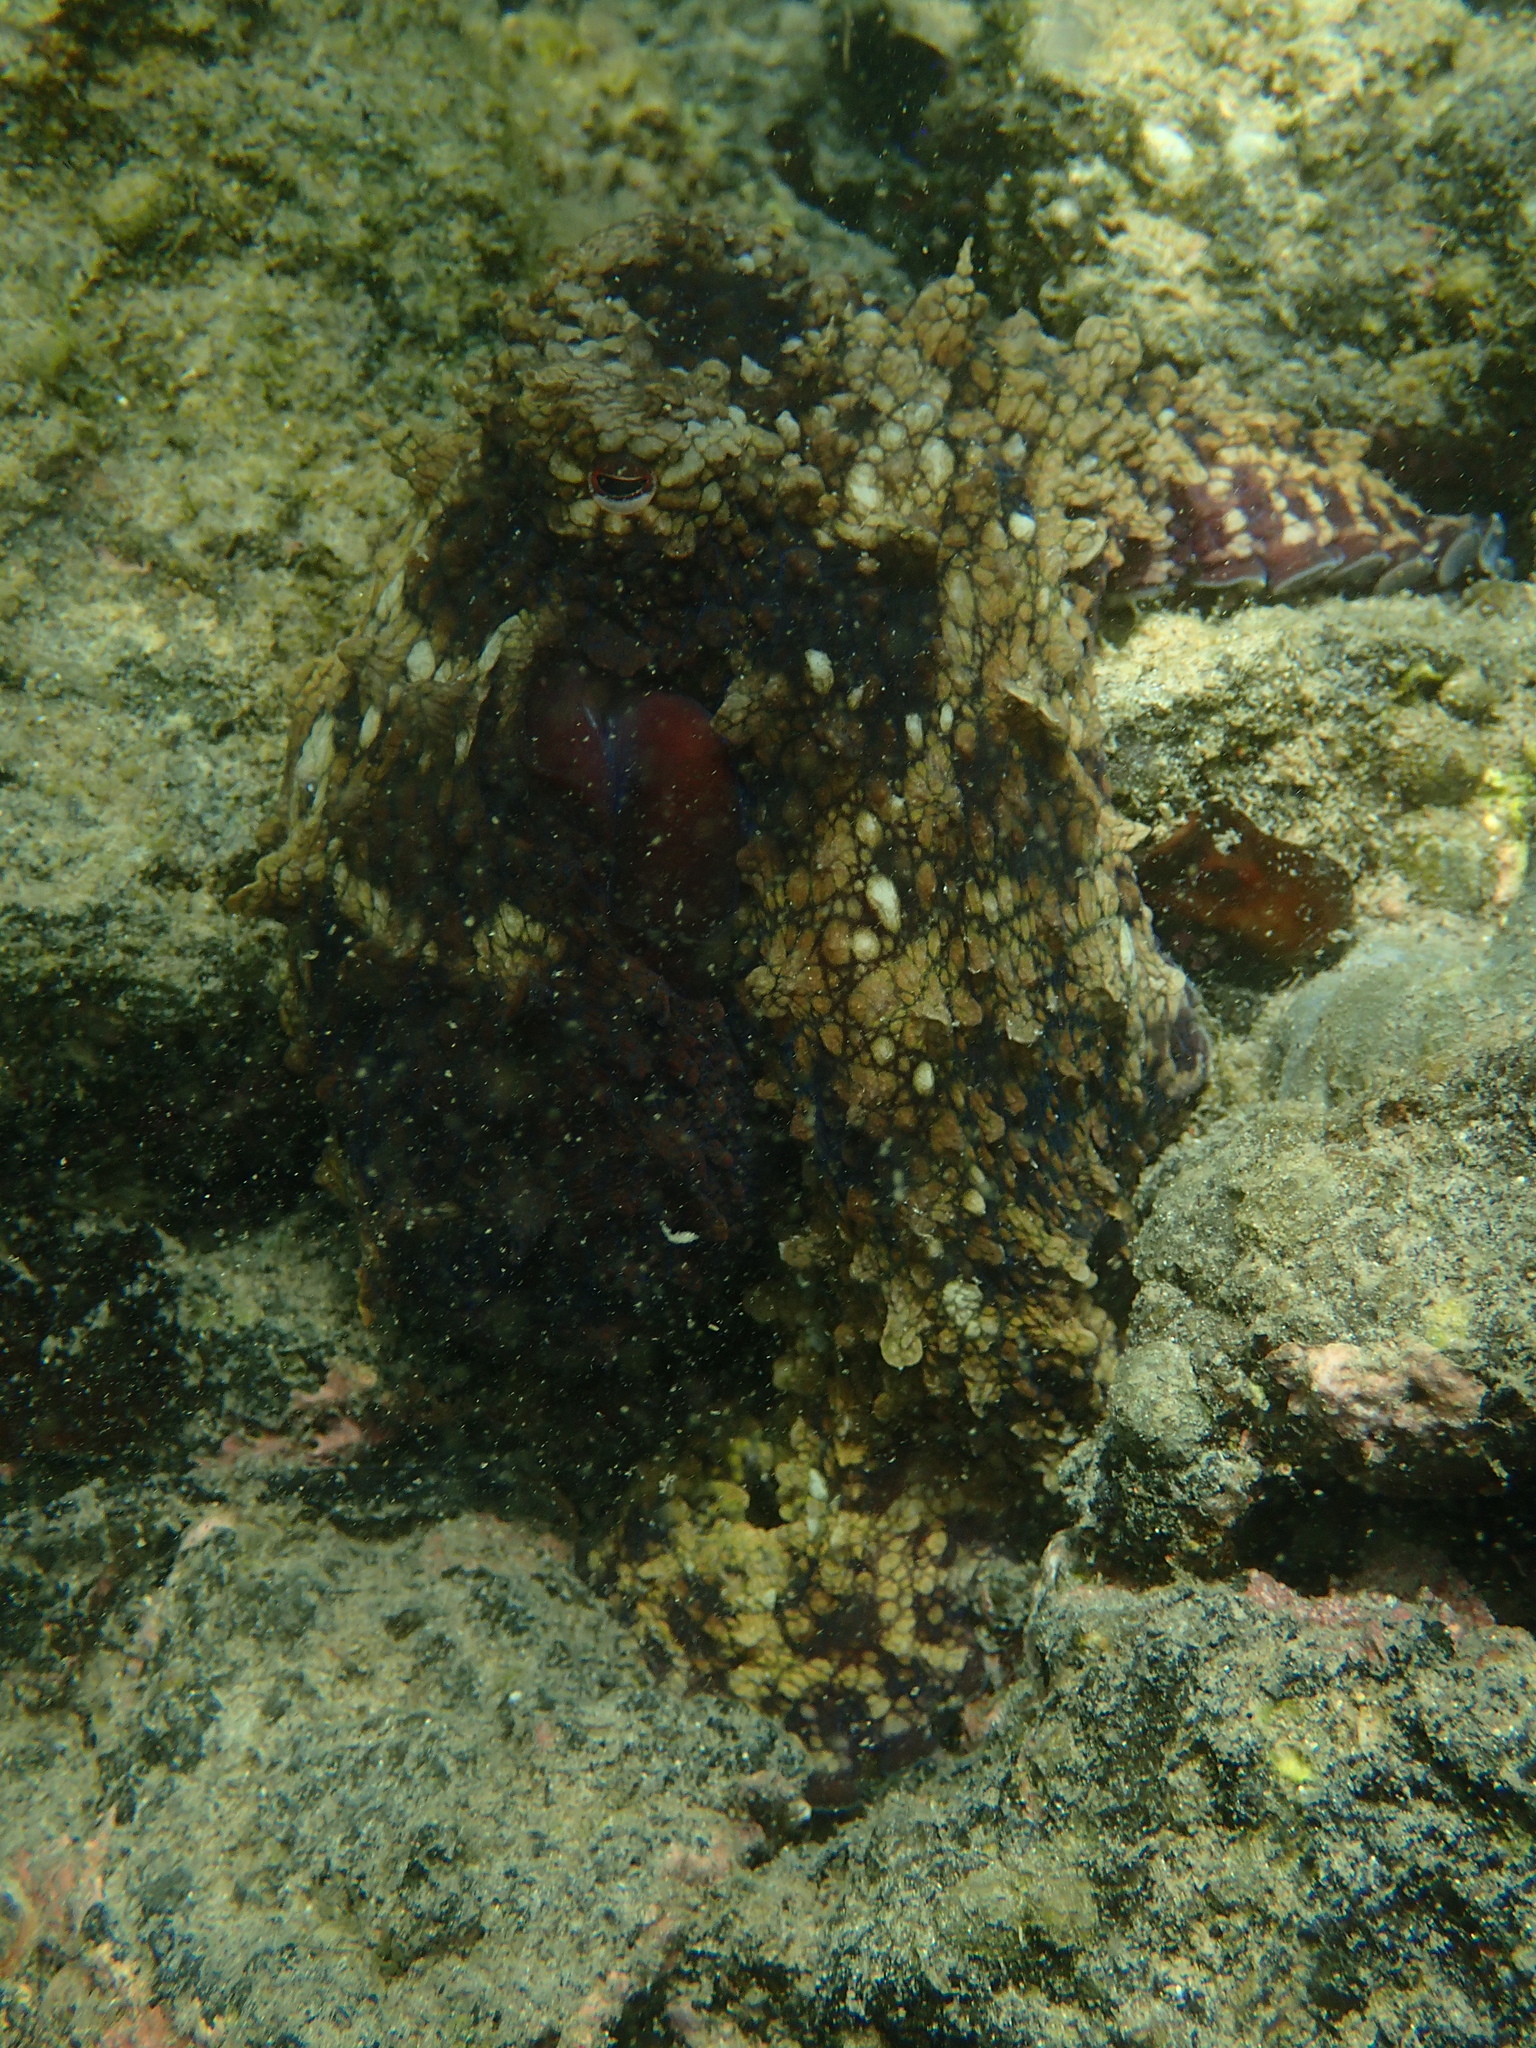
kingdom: Animalia
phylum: Mollusca
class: Cephalopoda
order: Octopoda
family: Octopodidae
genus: Octopus
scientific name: Octopus oculifer
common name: Reef octopus
